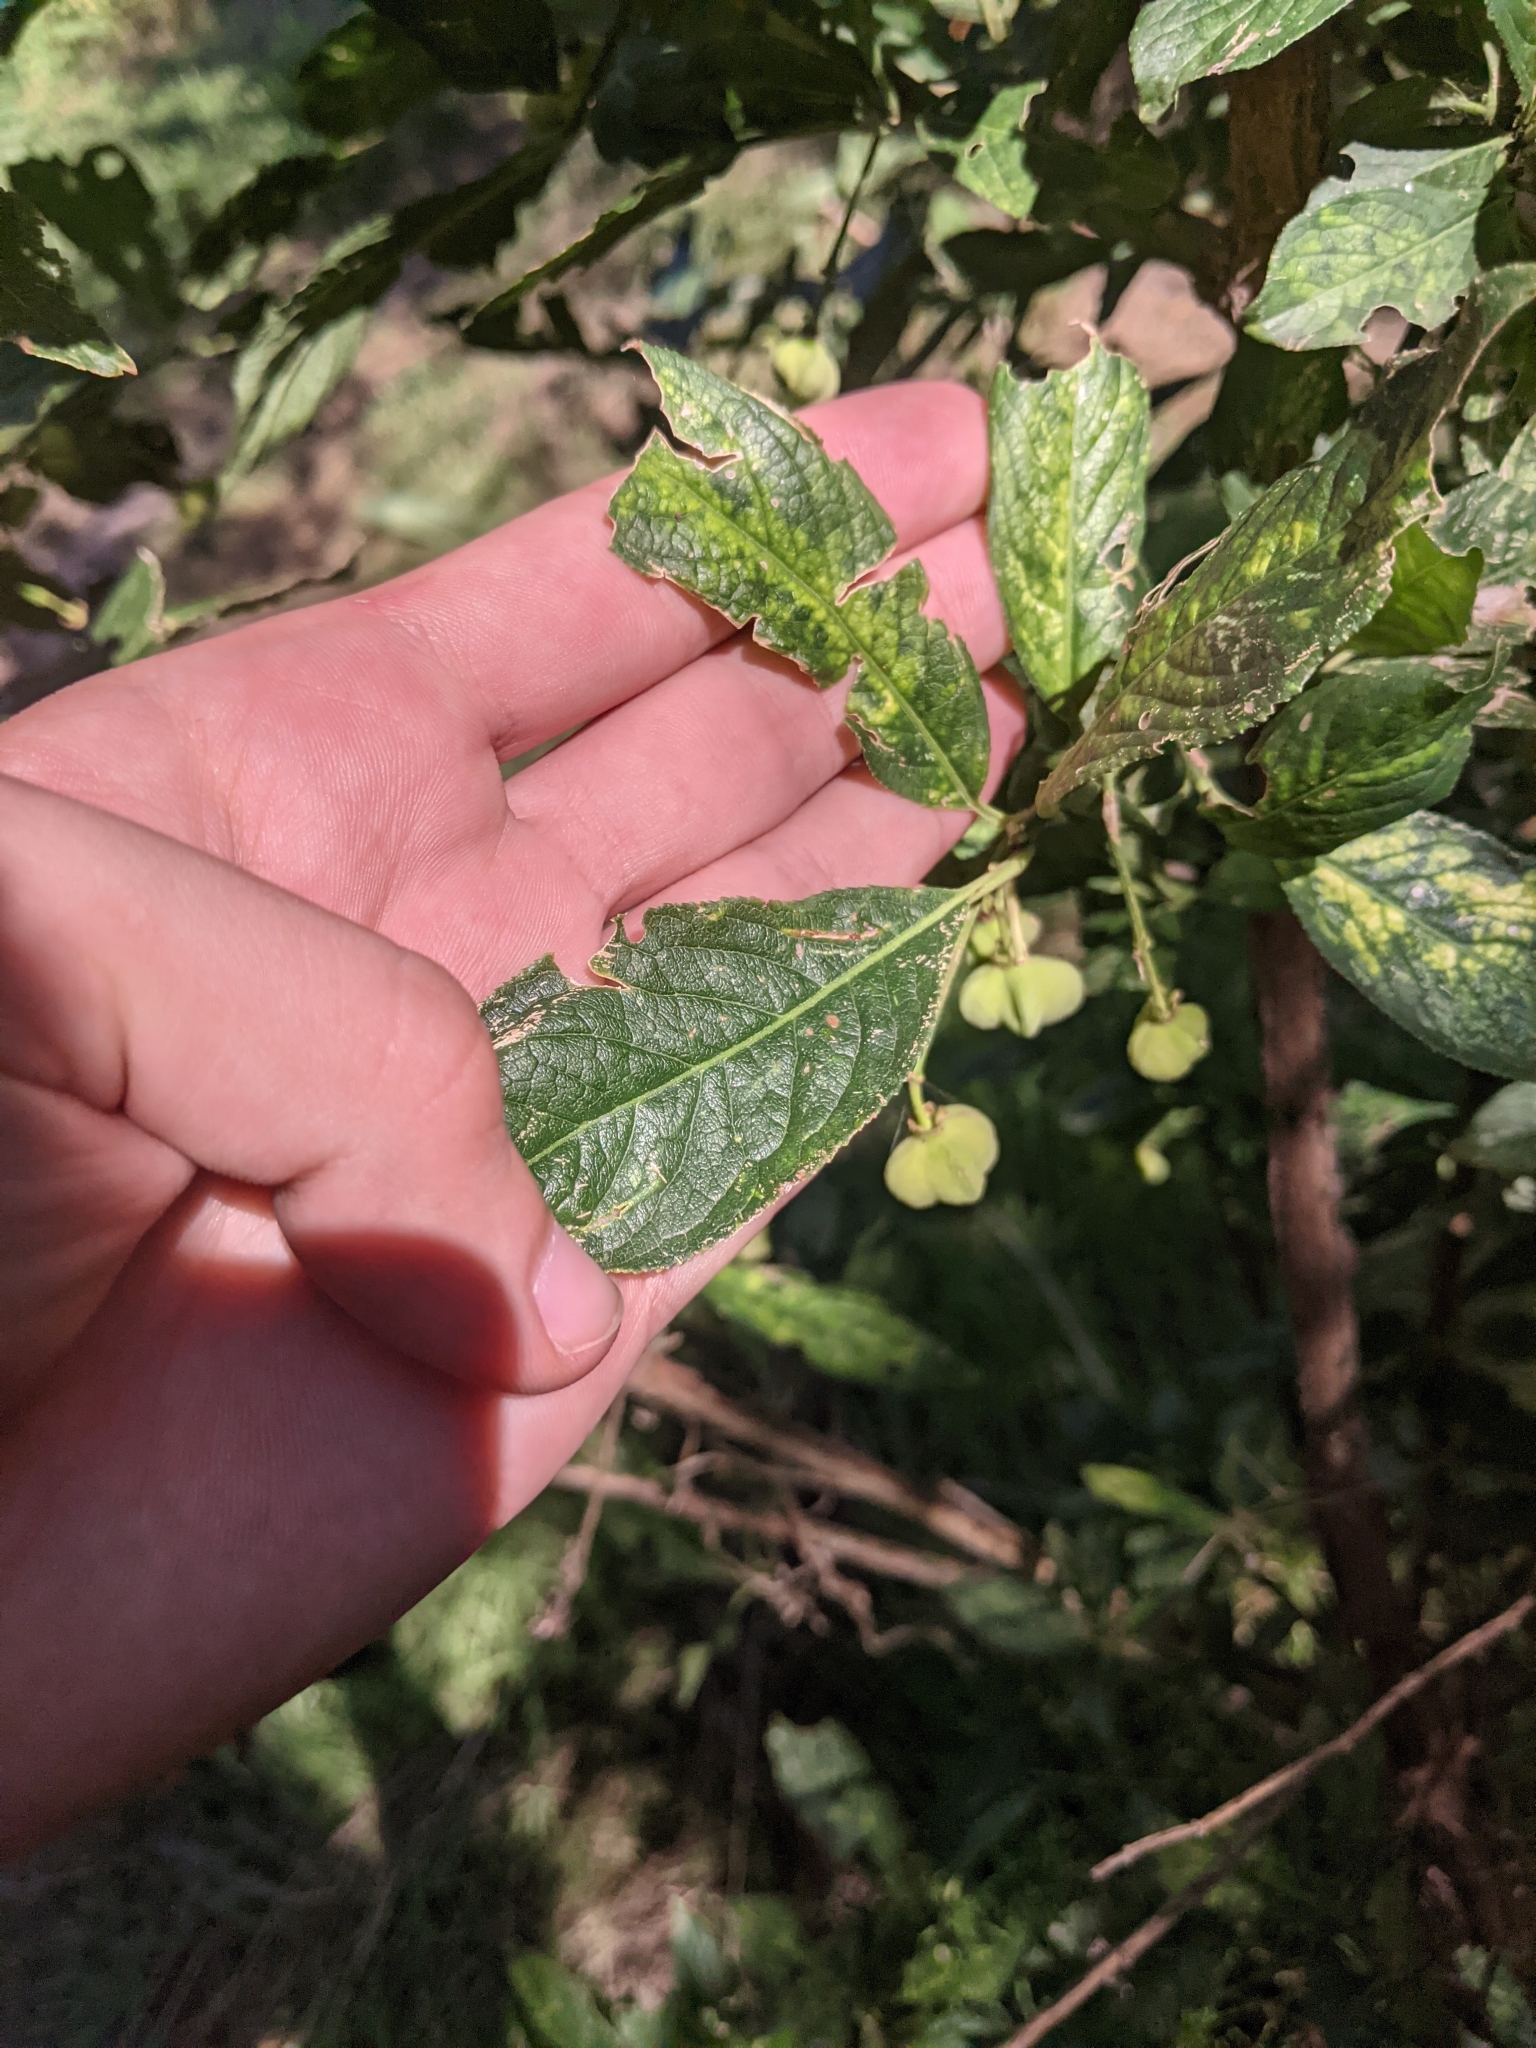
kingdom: Plantae
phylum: Tracheophyta
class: Magnoliopsida
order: Celastrales
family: Celastraceae
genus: Euonymus
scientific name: Euonymus europaeus
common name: Spindle
